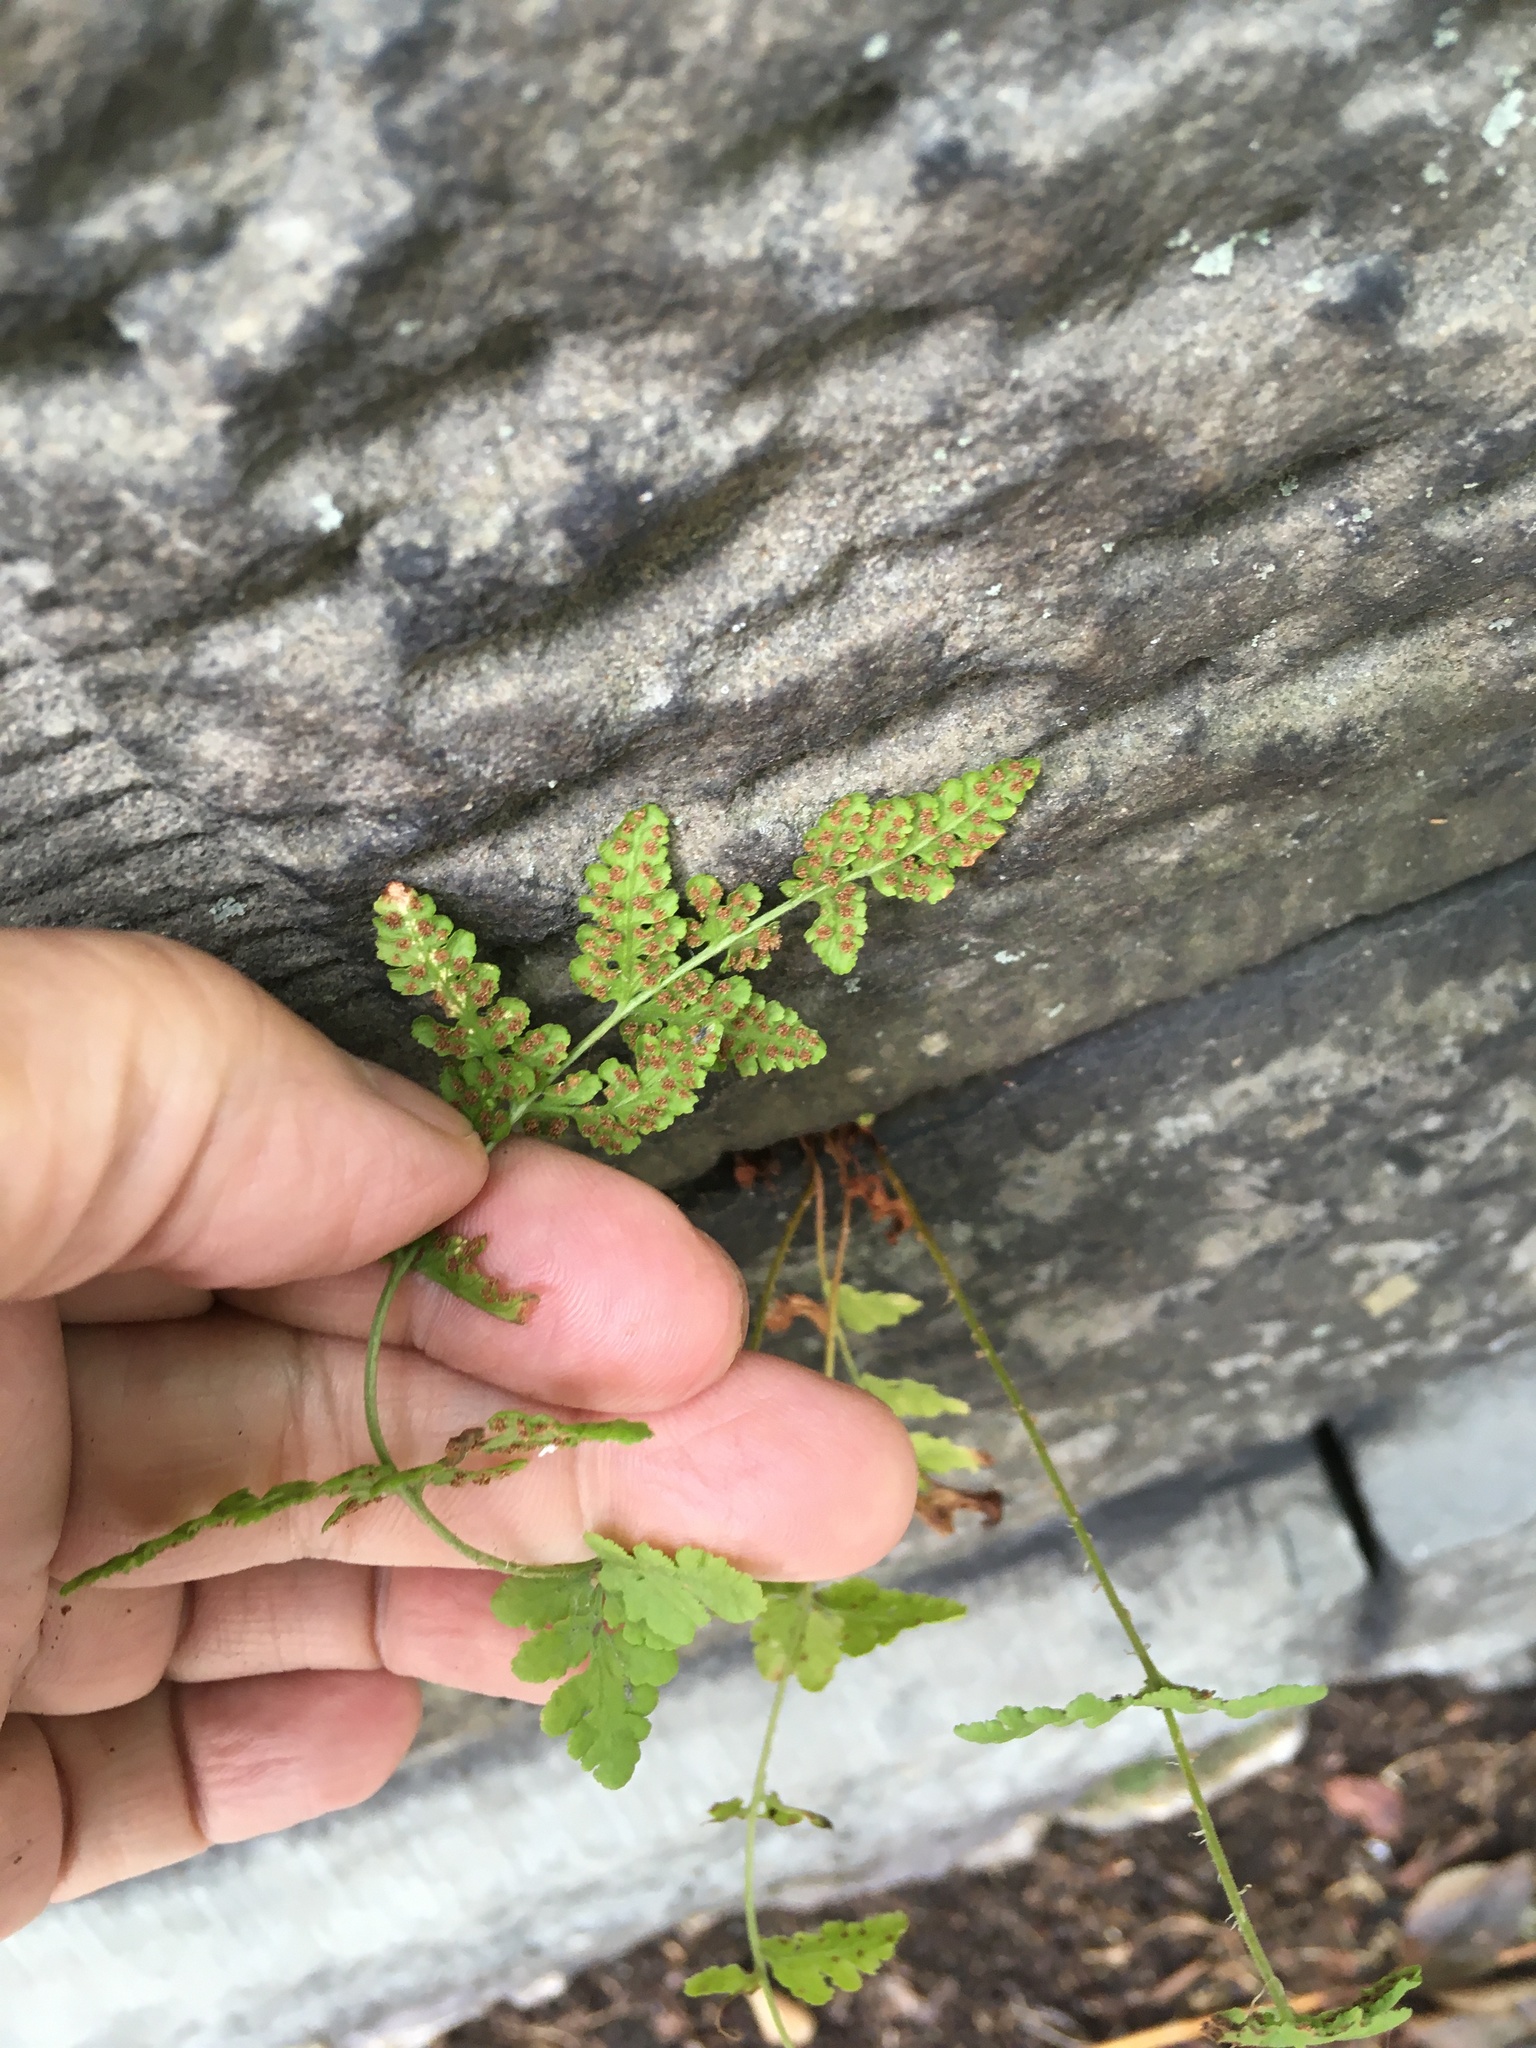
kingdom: Plantae
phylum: Tracheophyta
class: Polypodiopsida
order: Polypodiales
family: Woodsiaceae
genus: Physematium
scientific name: Physematium obtusum
